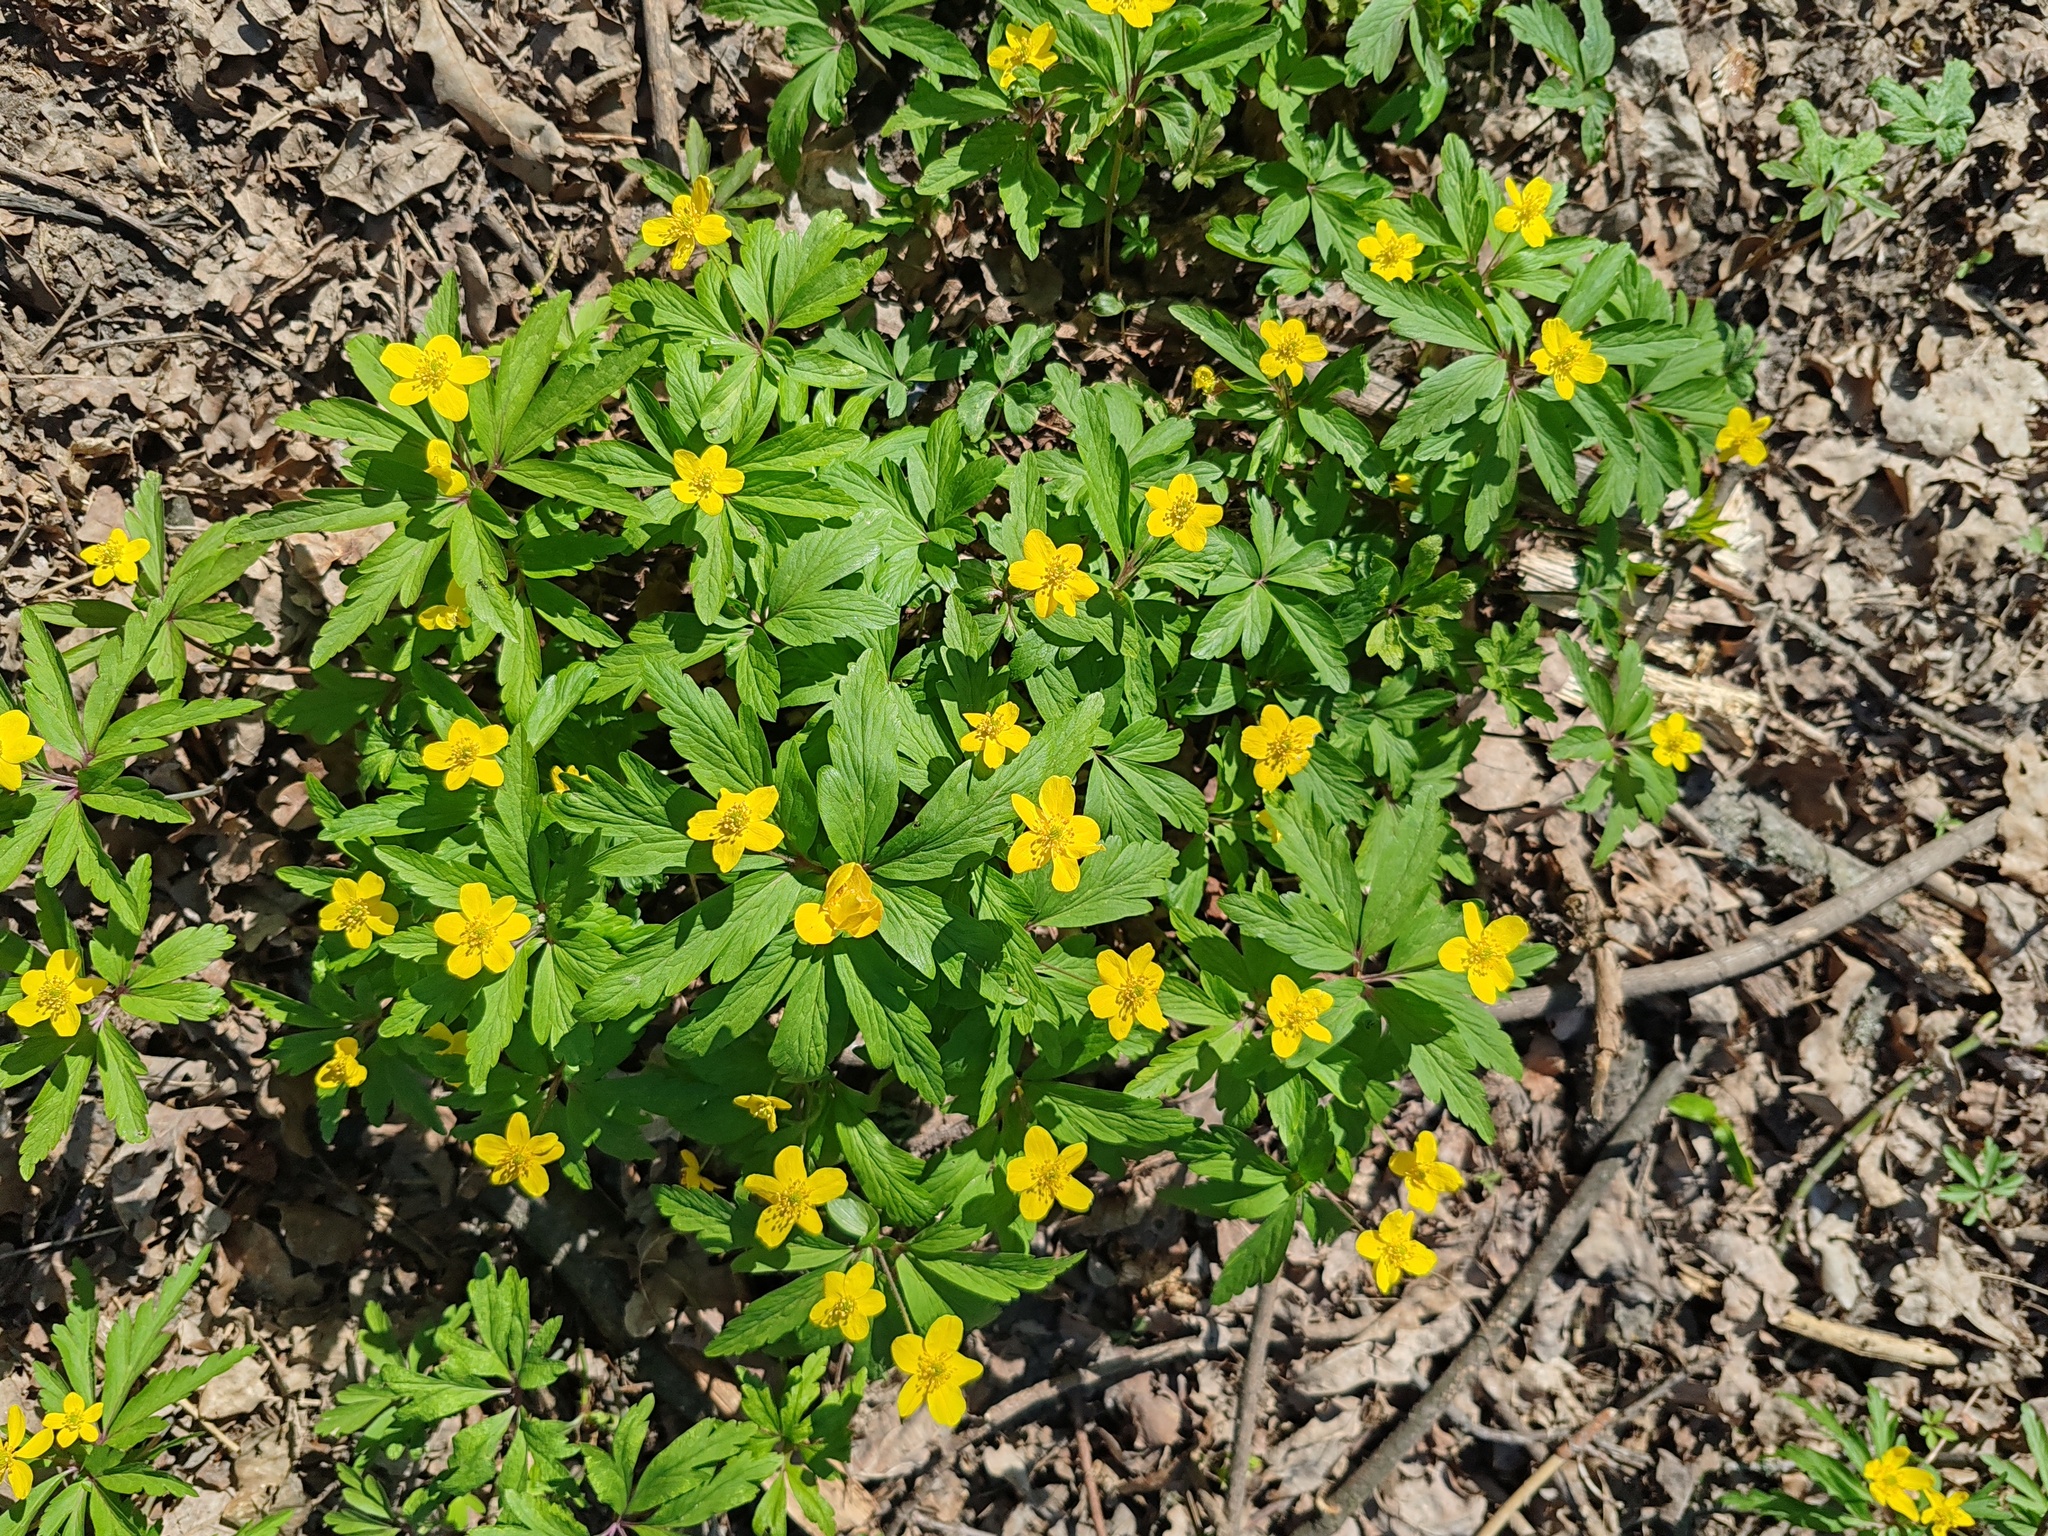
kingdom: Plantae
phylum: Tracheophyta
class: Magnoliopsida
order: Ranunculales
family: Ranunculaceae
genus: Anemone
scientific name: Anemone ranunculoides
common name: Yellow anemone
